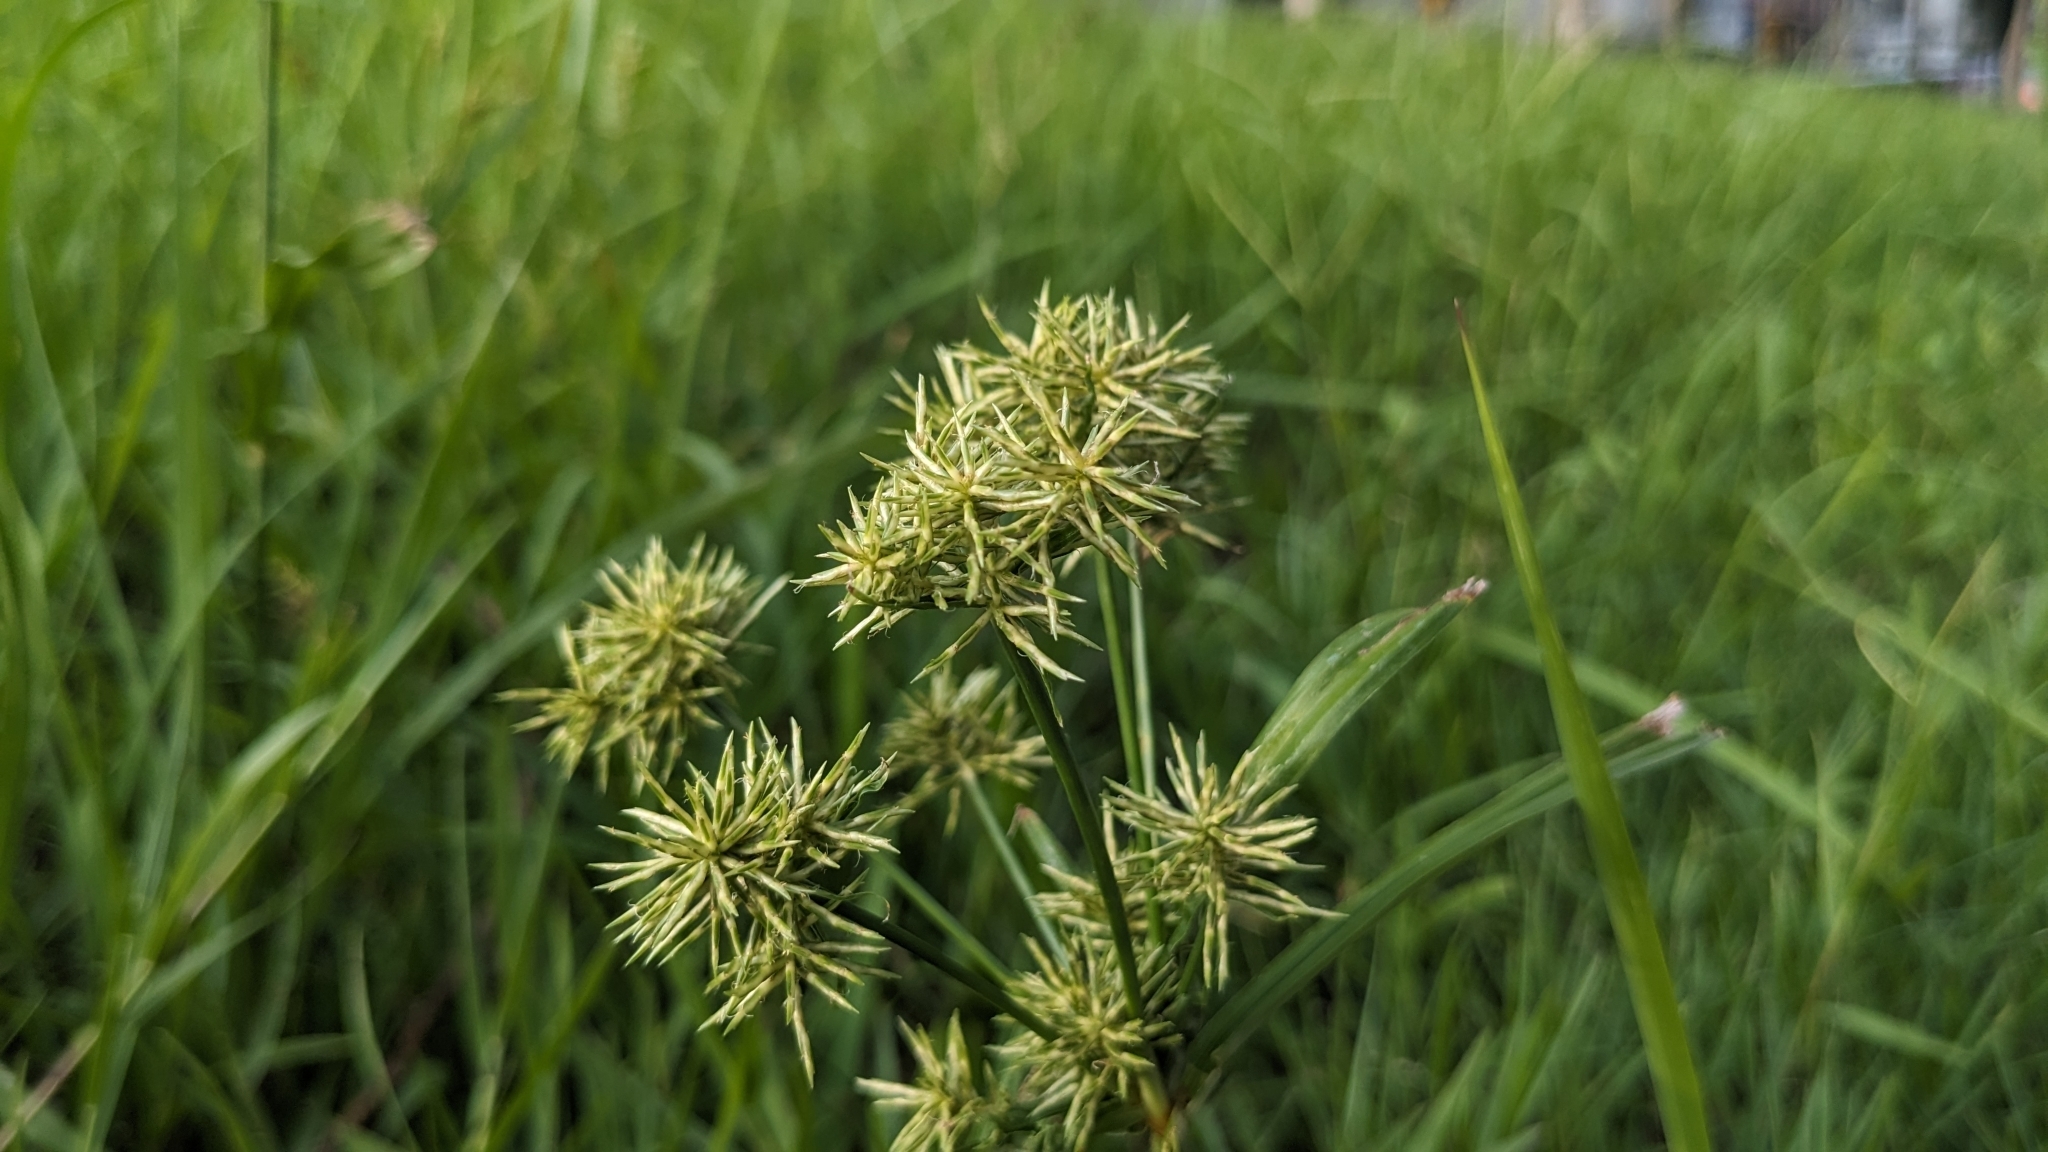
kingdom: Plantae
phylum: Tracheophyta
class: Liliopsida
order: Poales
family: Cyperaceae
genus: Cyperus
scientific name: Cyperus odoratus
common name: Fragrant flatsedge
